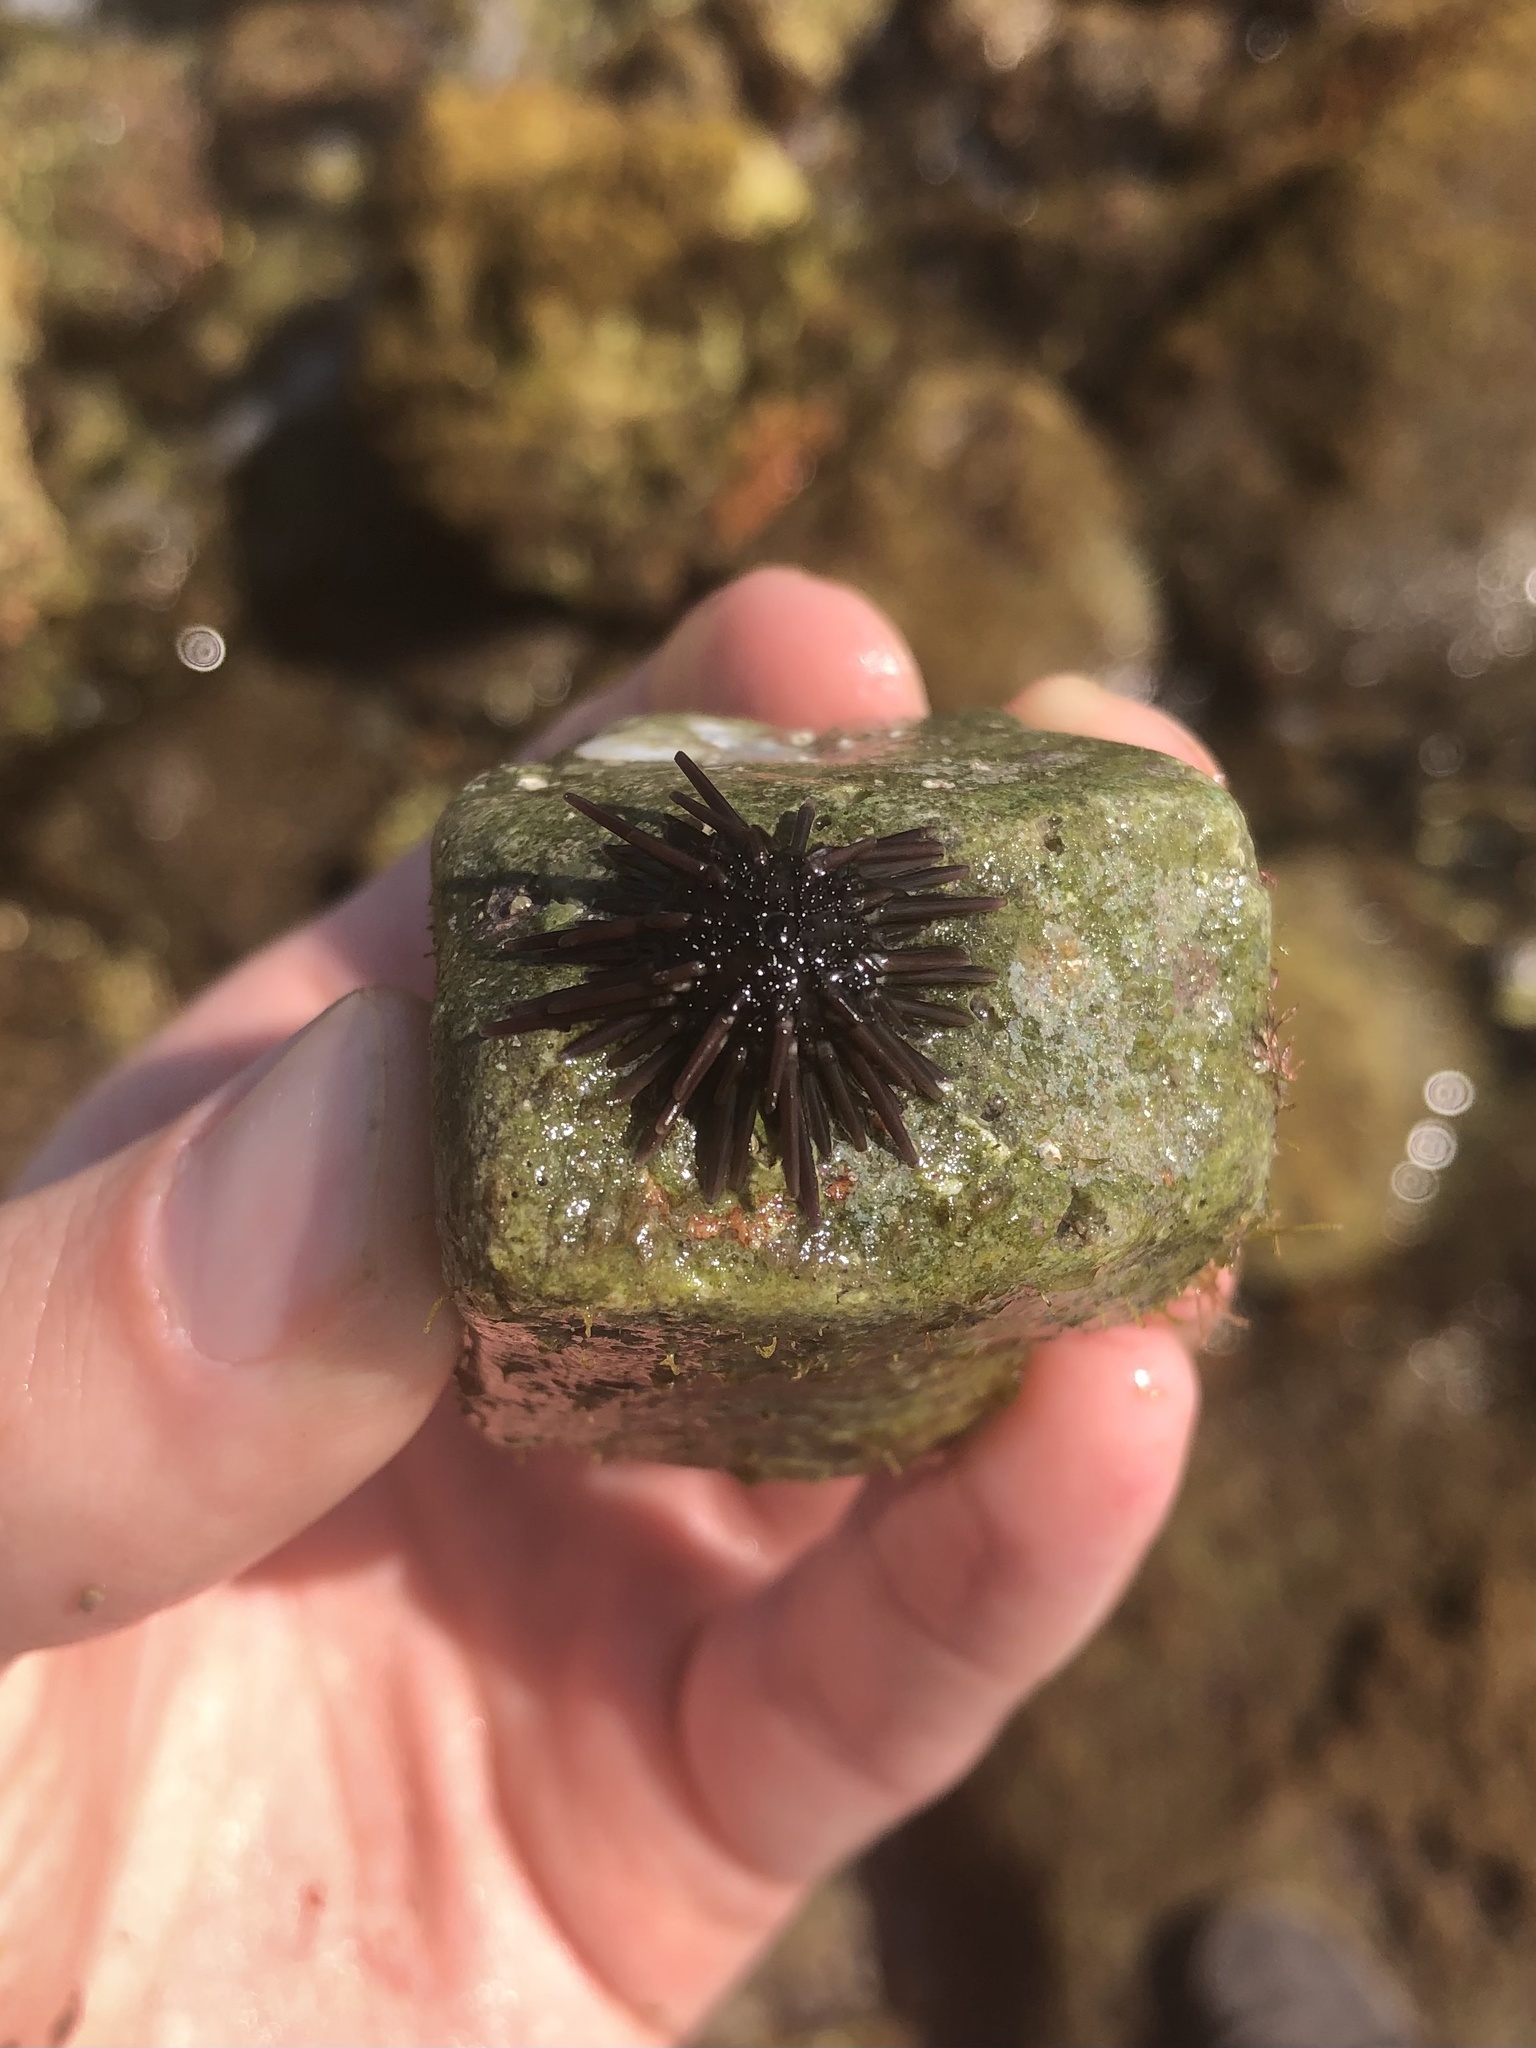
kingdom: Animalia
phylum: Echinodermata
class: Echinoidea
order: Arbacioida
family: Arbaciidae
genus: Arbacia
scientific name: Arbacia punctulata
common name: Purple-spined sea urchin
